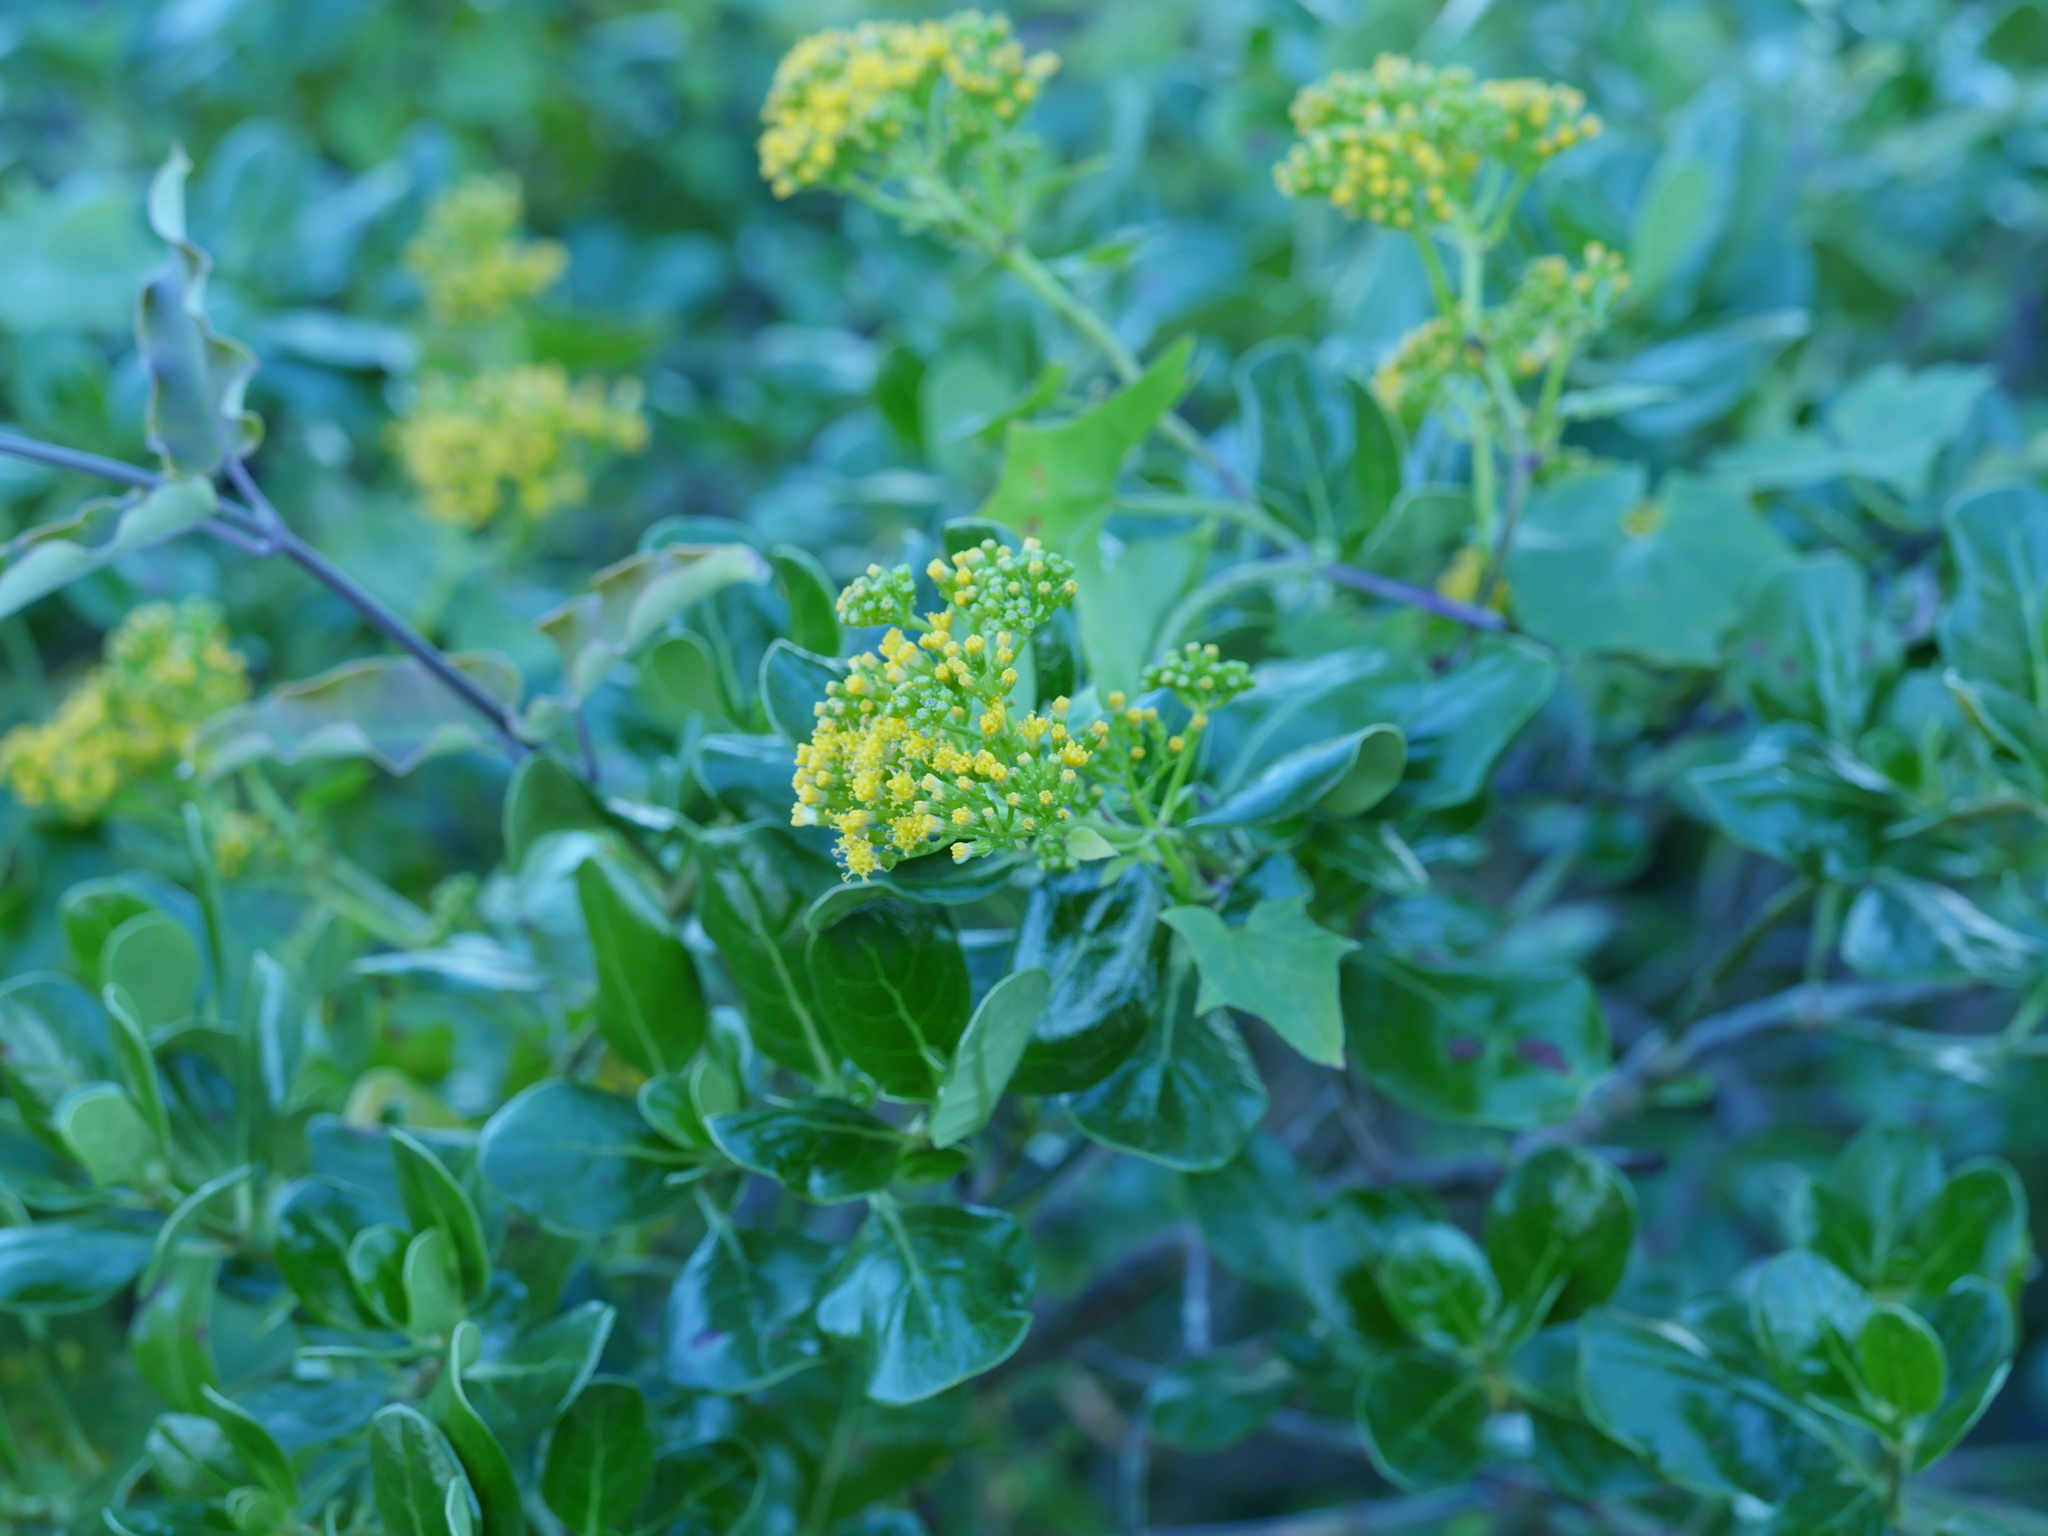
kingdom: Plantae
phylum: Tracheophyta
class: Magnoliopsida
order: Asterales
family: Asteraceae
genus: Delairea
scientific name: Delairea odorata
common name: Cape-ivy
